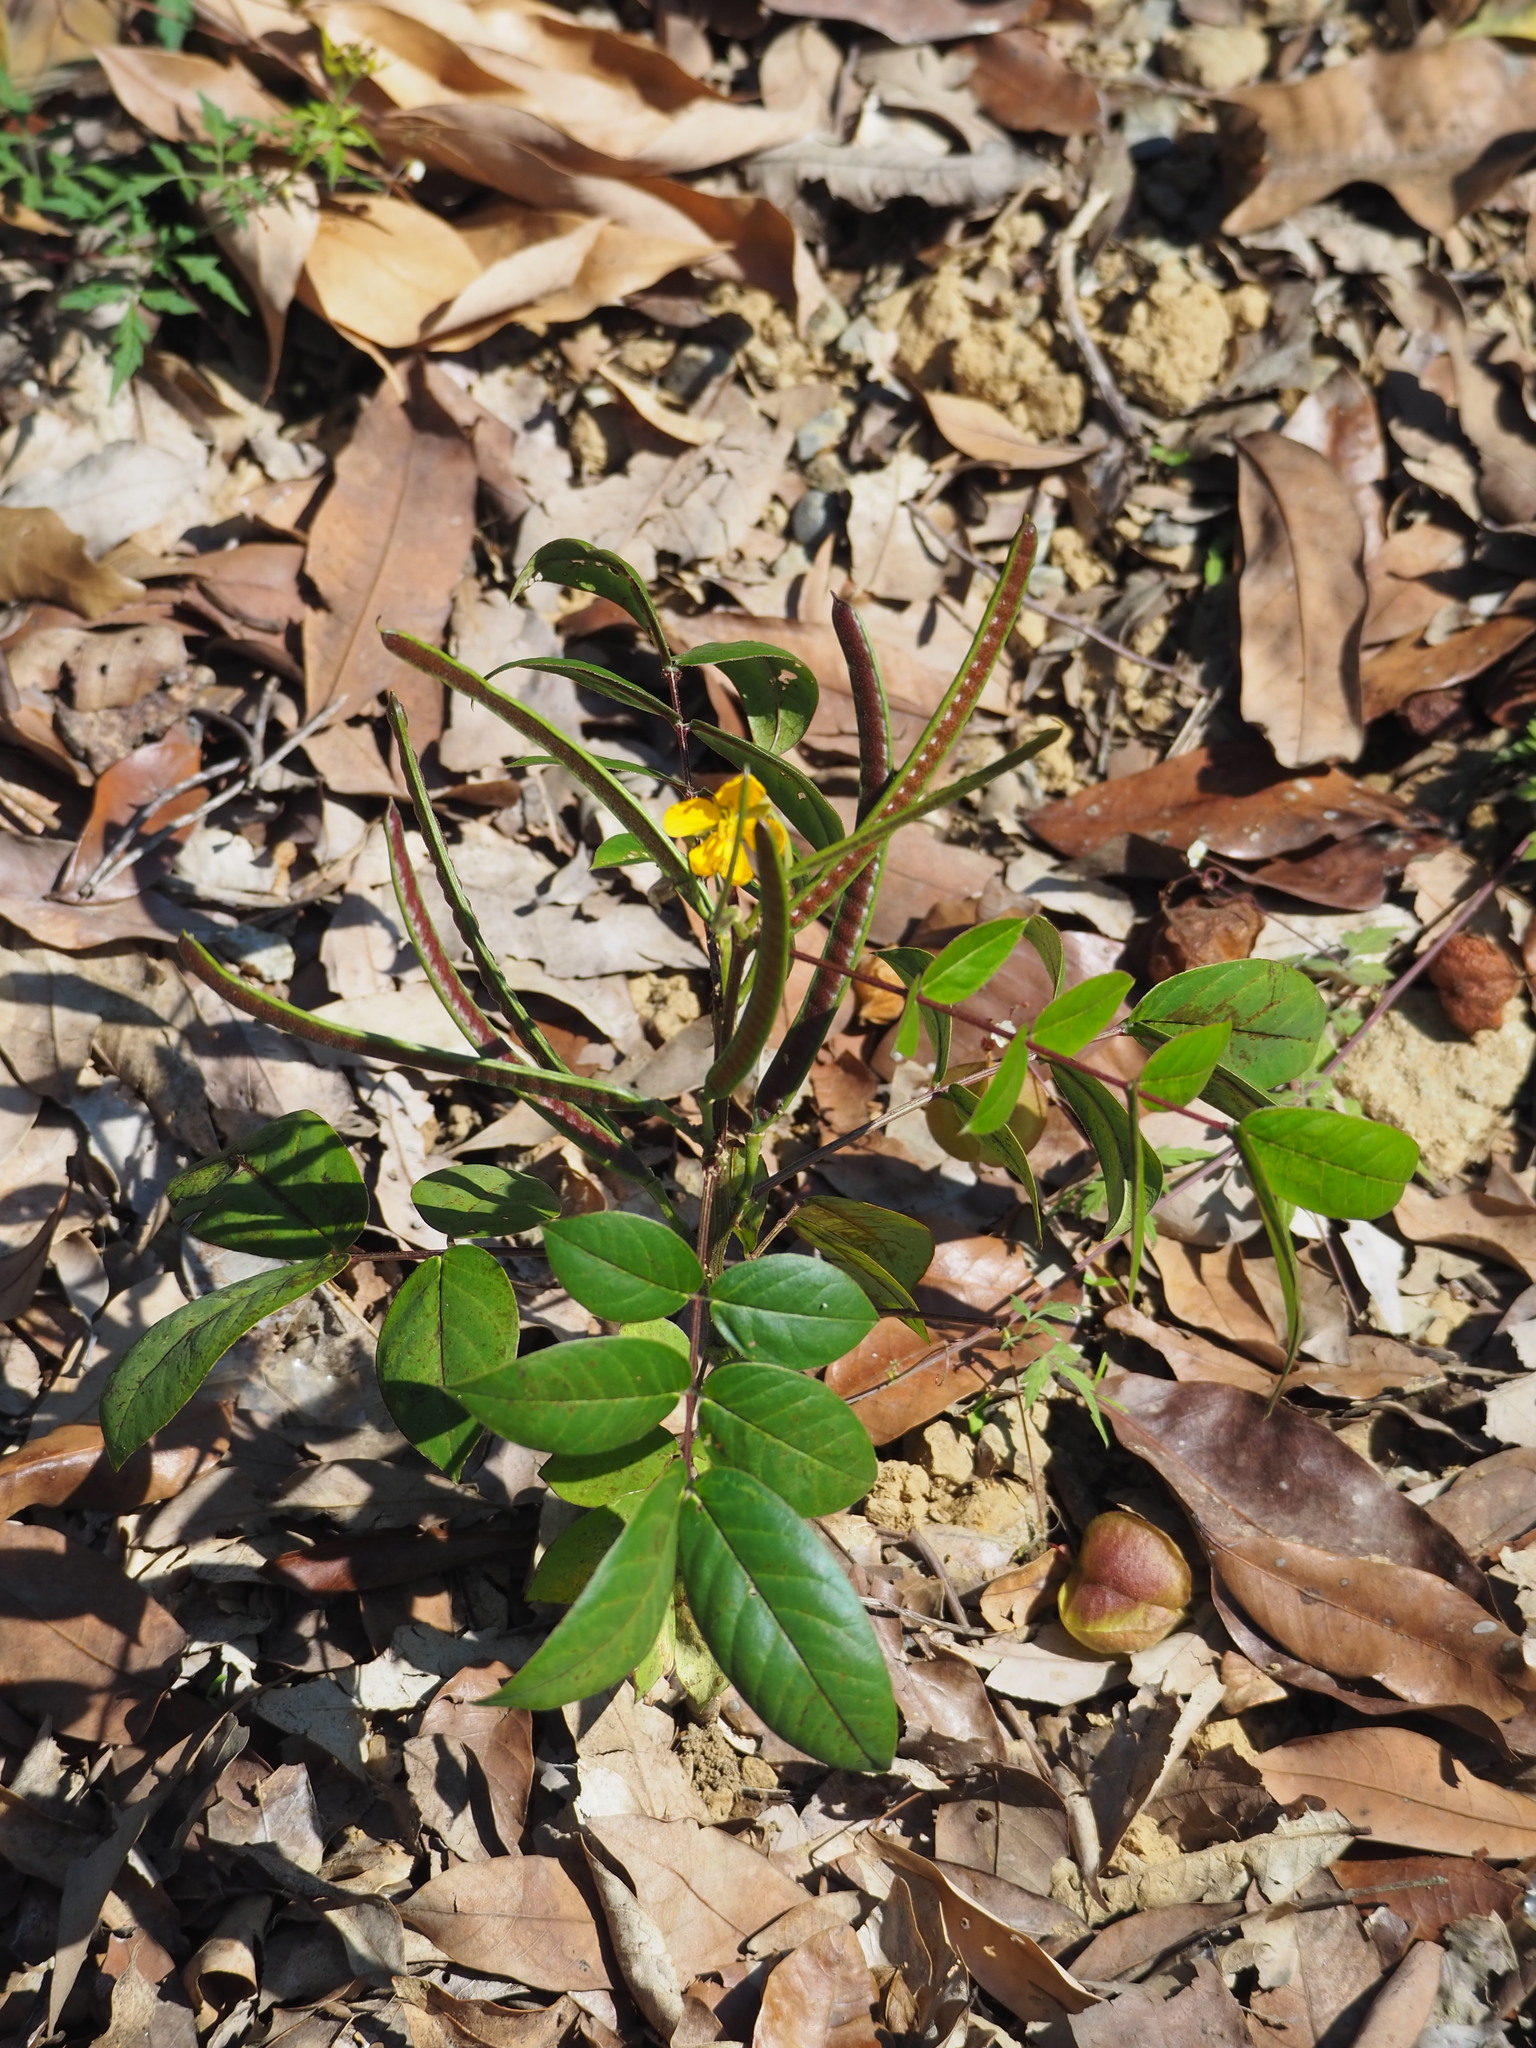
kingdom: Plantae
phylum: Tracheophyta
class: Magnoliopsida
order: Fabales
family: Fabaceae
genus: Senna
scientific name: Senna occidentalis
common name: Septicweed
